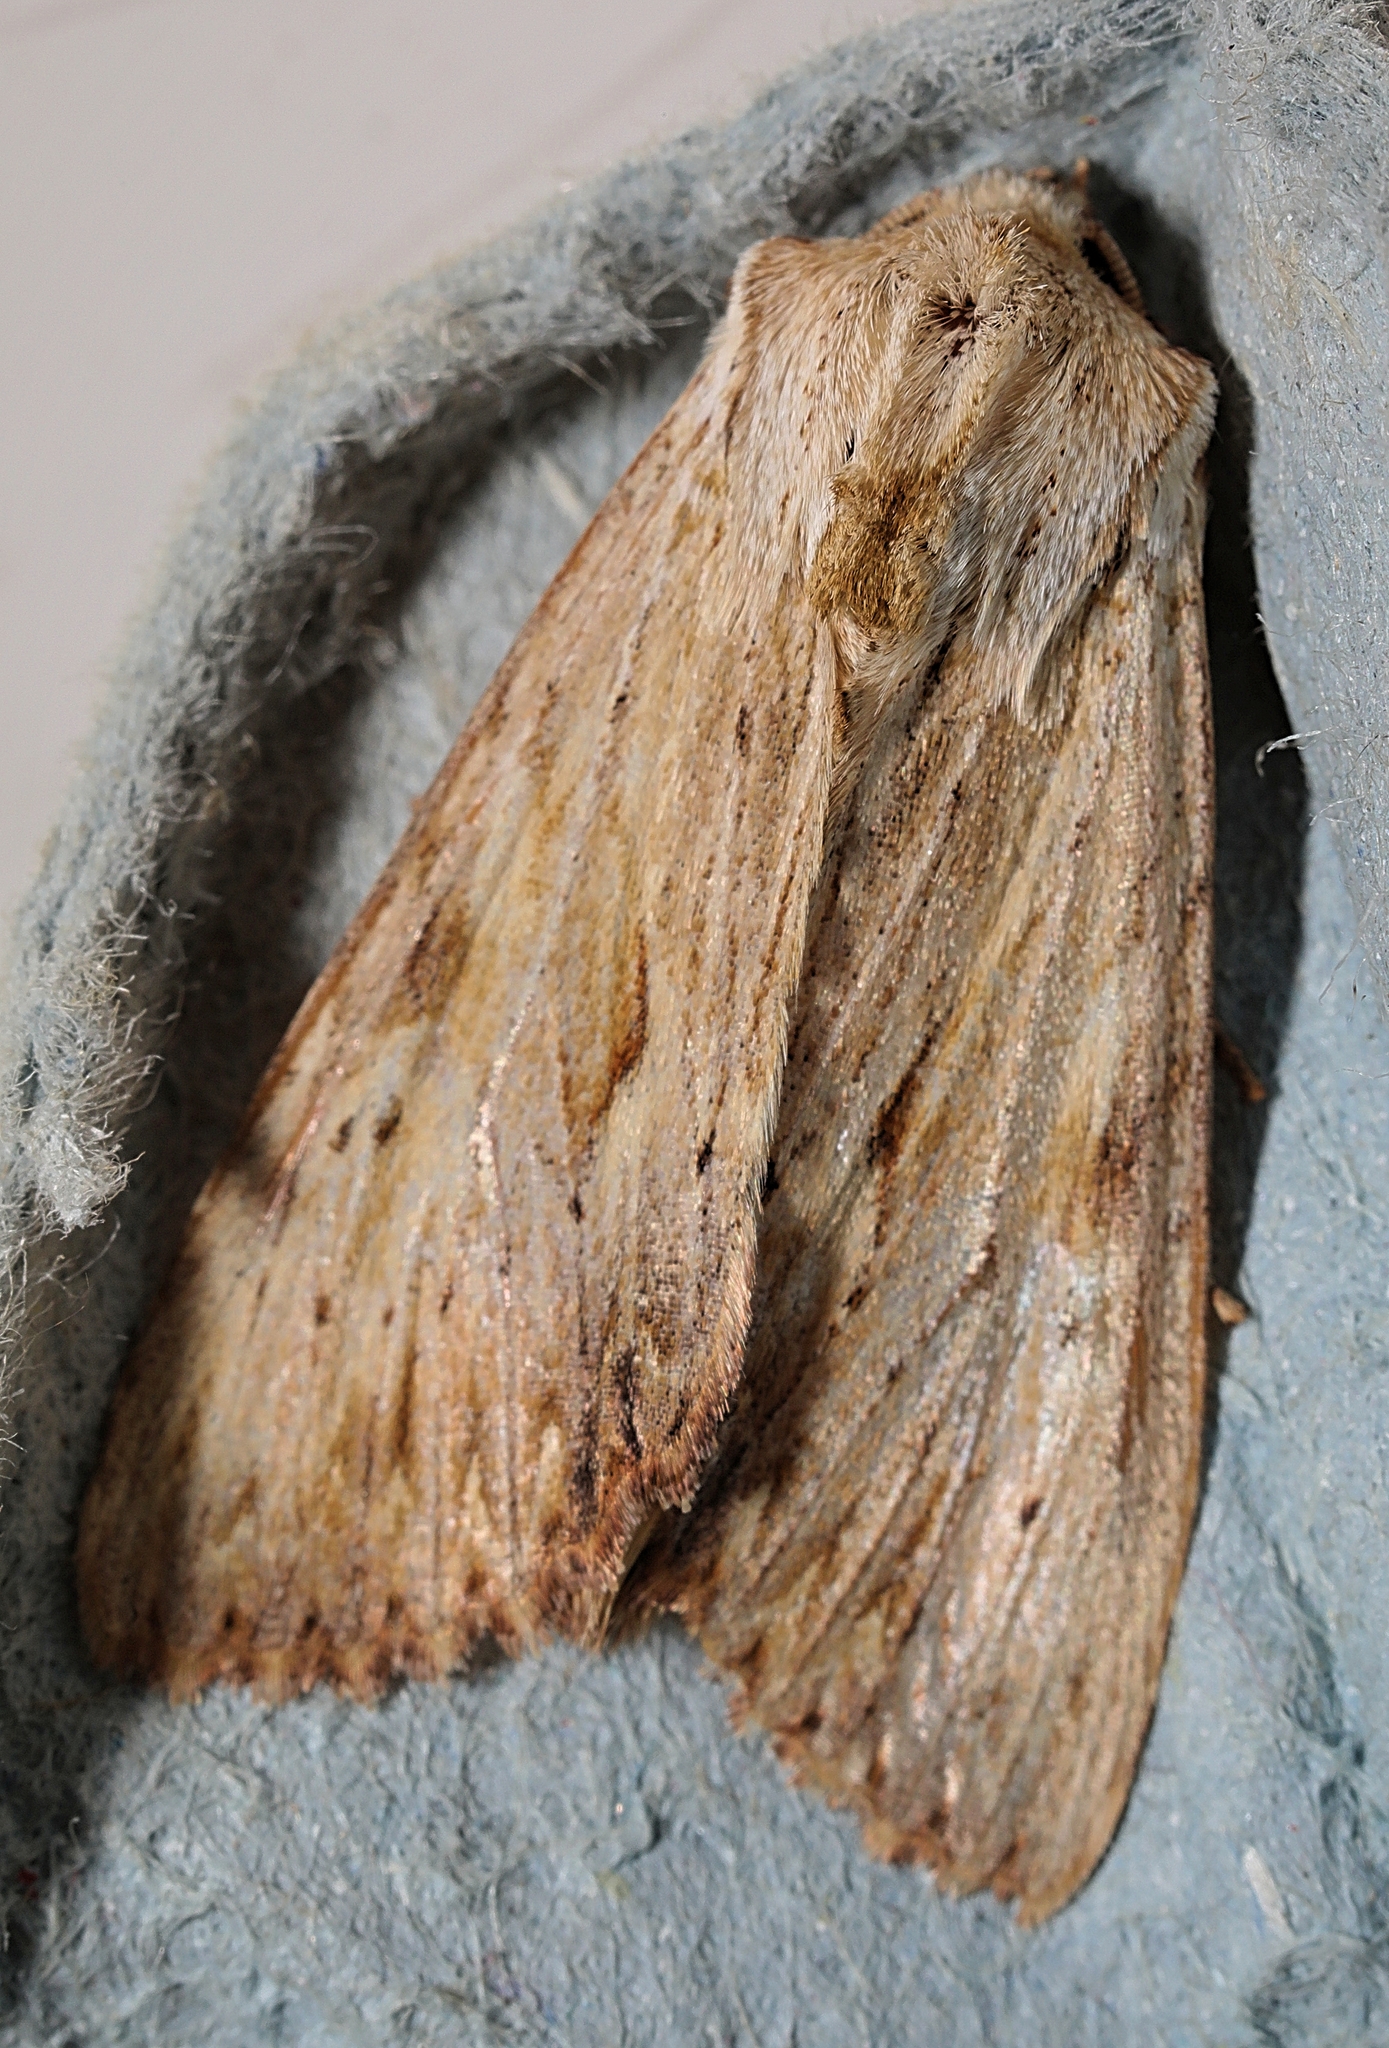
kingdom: Animalia
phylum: Arthropoda
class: Insecta
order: Lepidoptera
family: Noctuidae
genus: Apamea
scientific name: Apamea lithoxylaea
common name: Light arches
